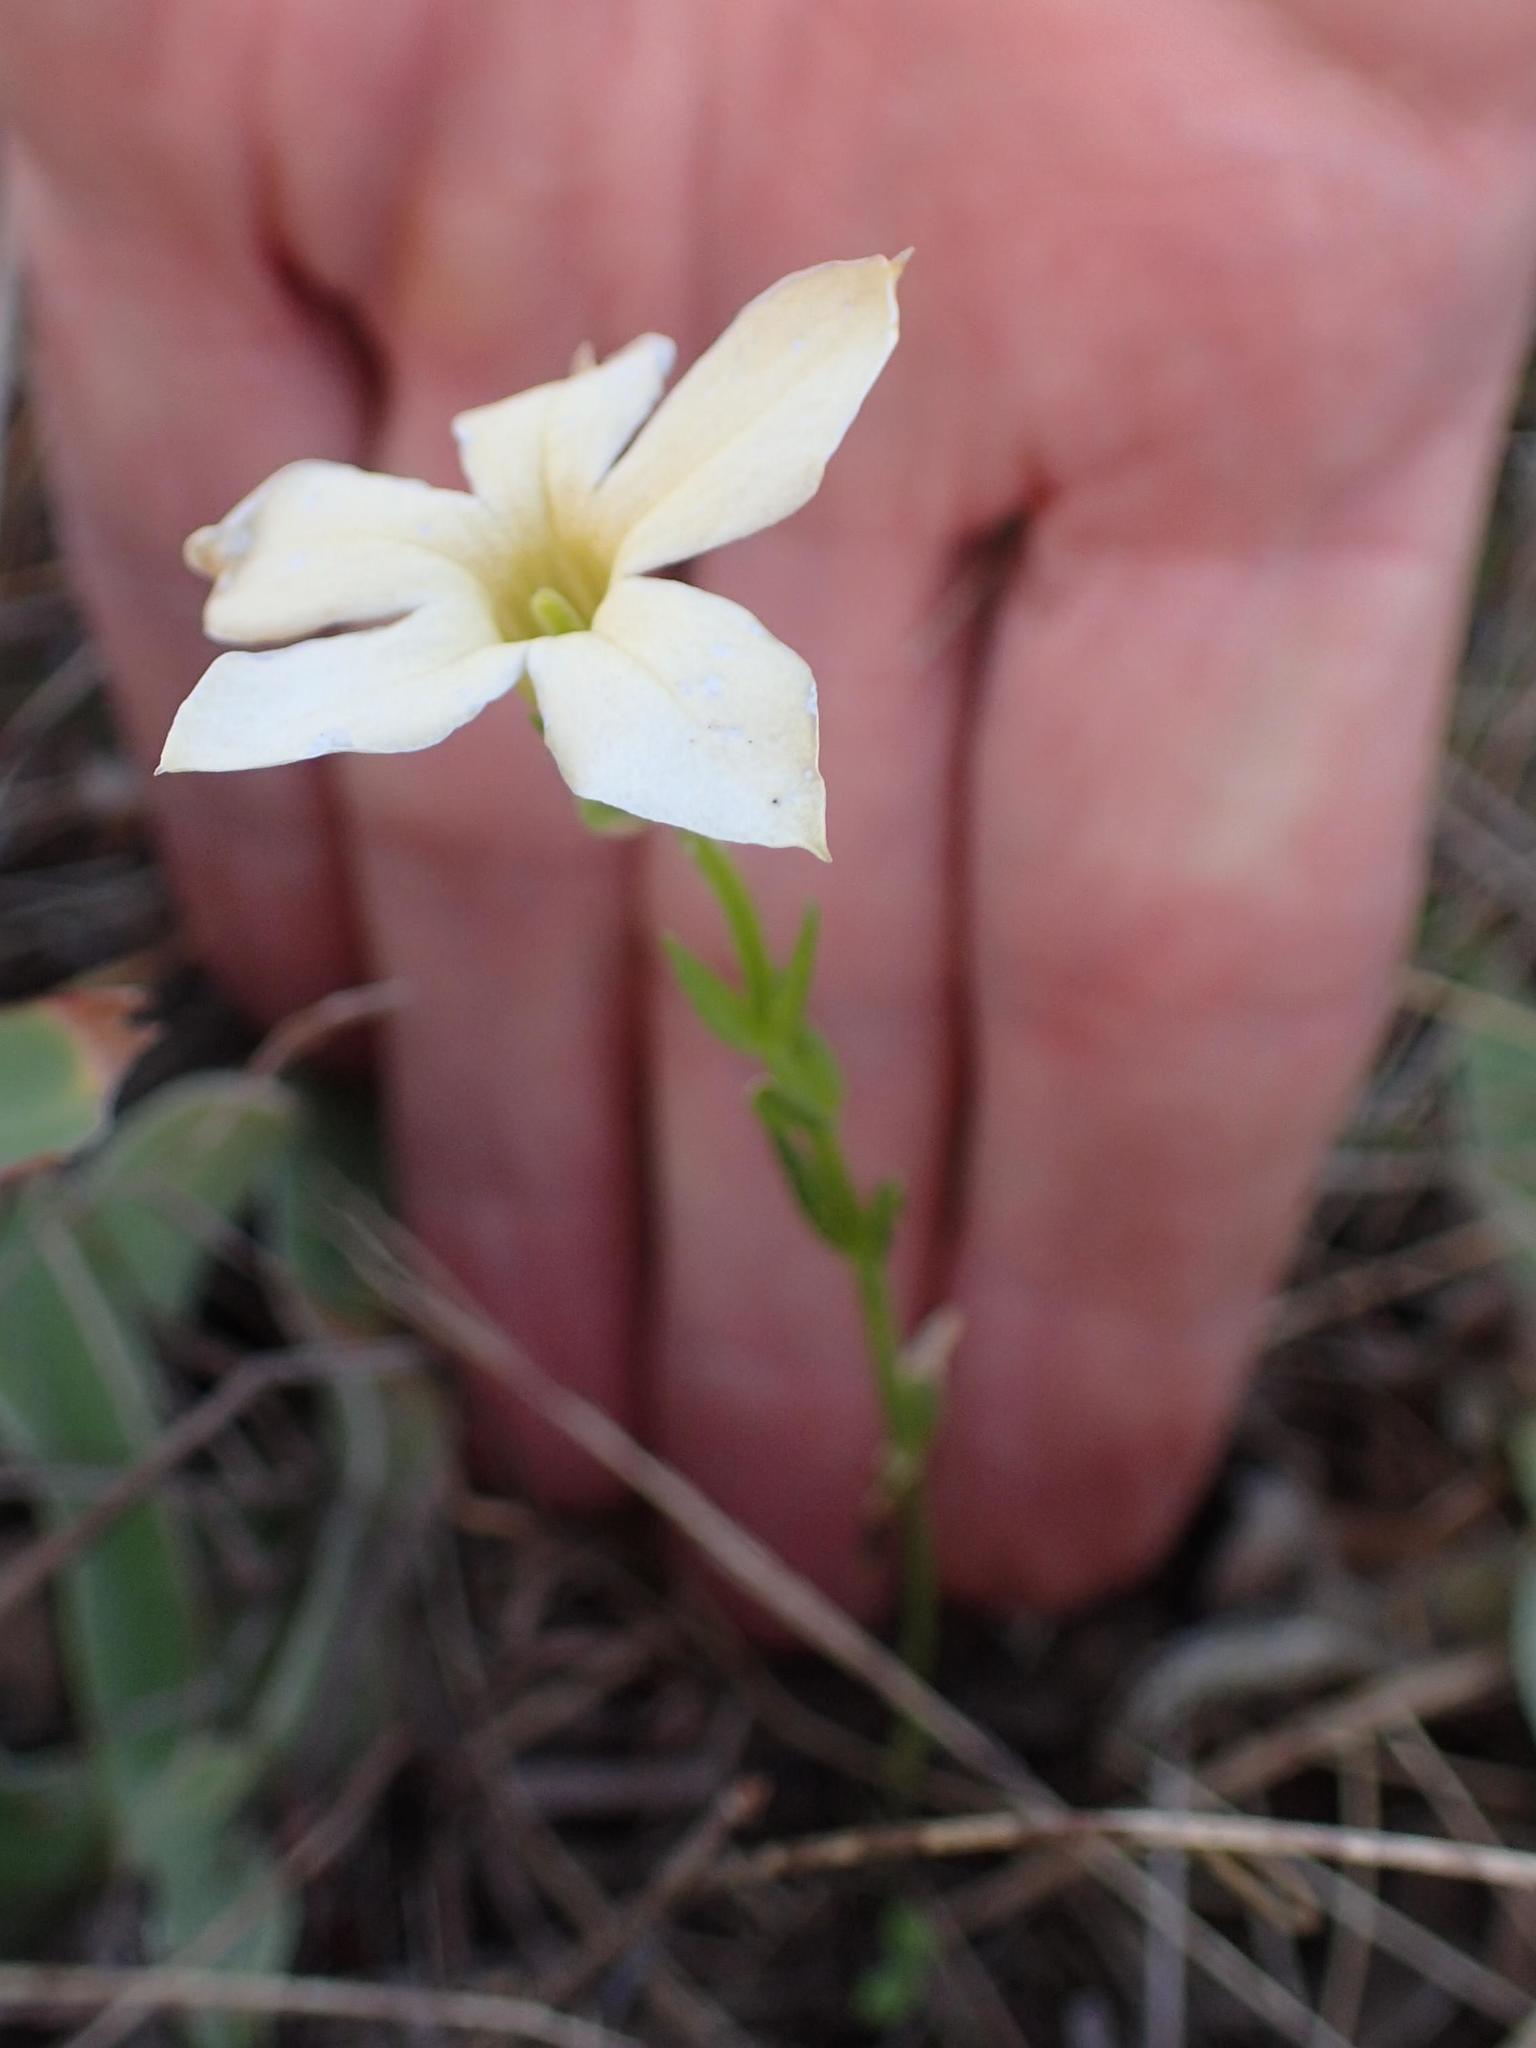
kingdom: Plantae
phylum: Tracheophyta
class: Magnoliopsida
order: Gentianales
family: Gentianaceae
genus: Exochaenium
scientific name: Exochaenium grande
